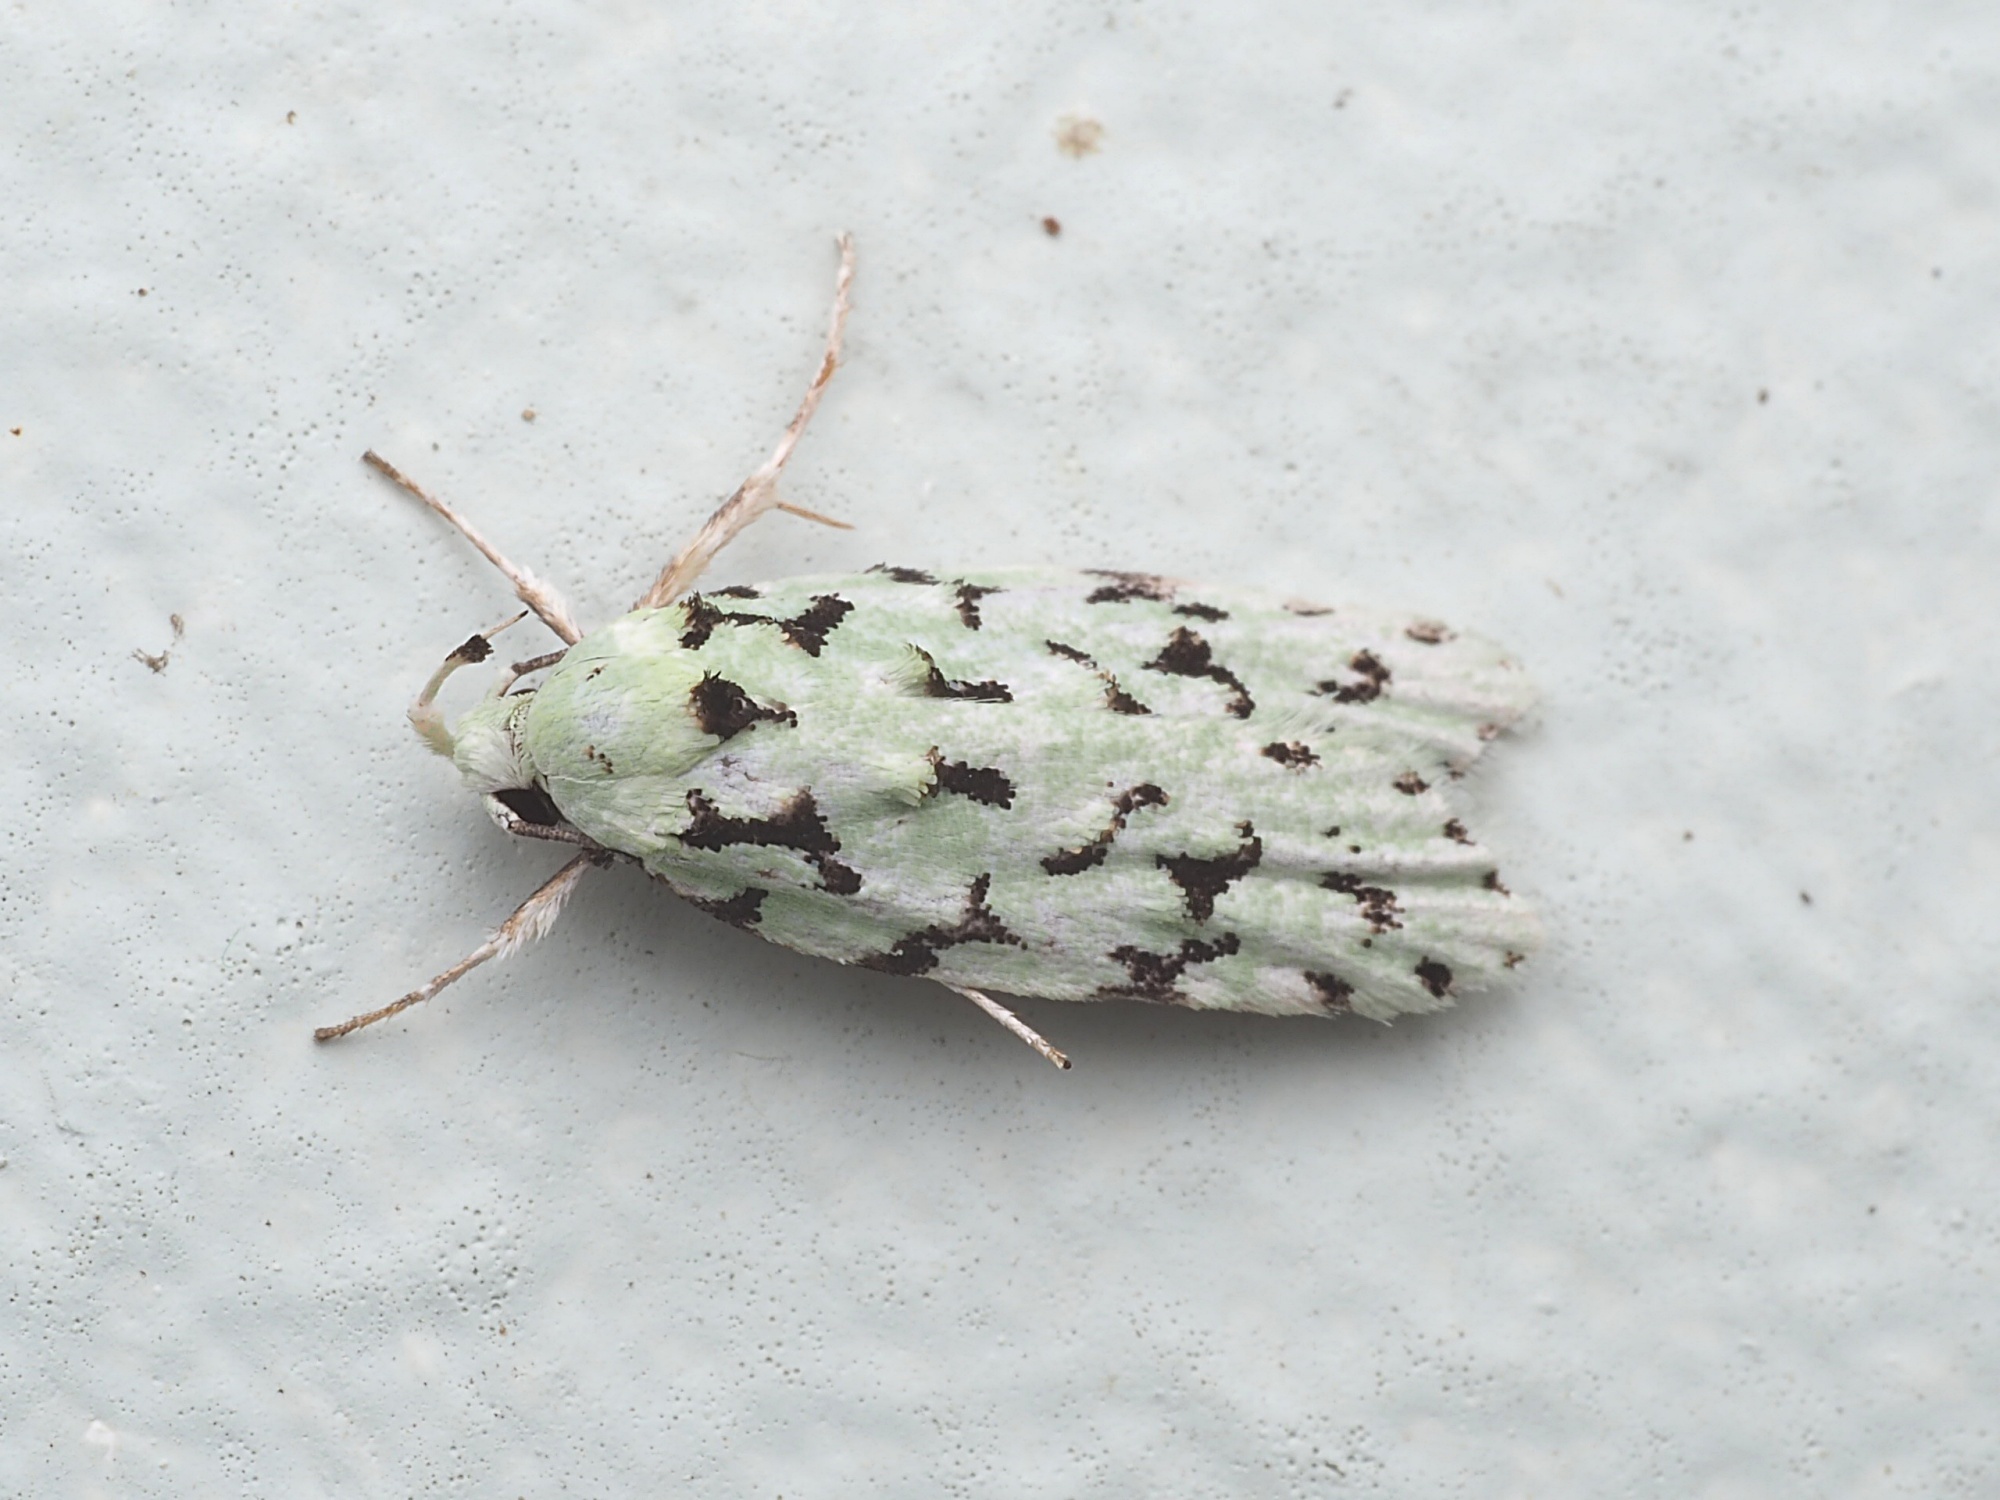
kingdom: Animalia
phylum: Arthropoda
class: Insecta
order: Lepidoptera
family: Oecophoridae
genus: Izatha
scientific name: Izatha peroneanella
